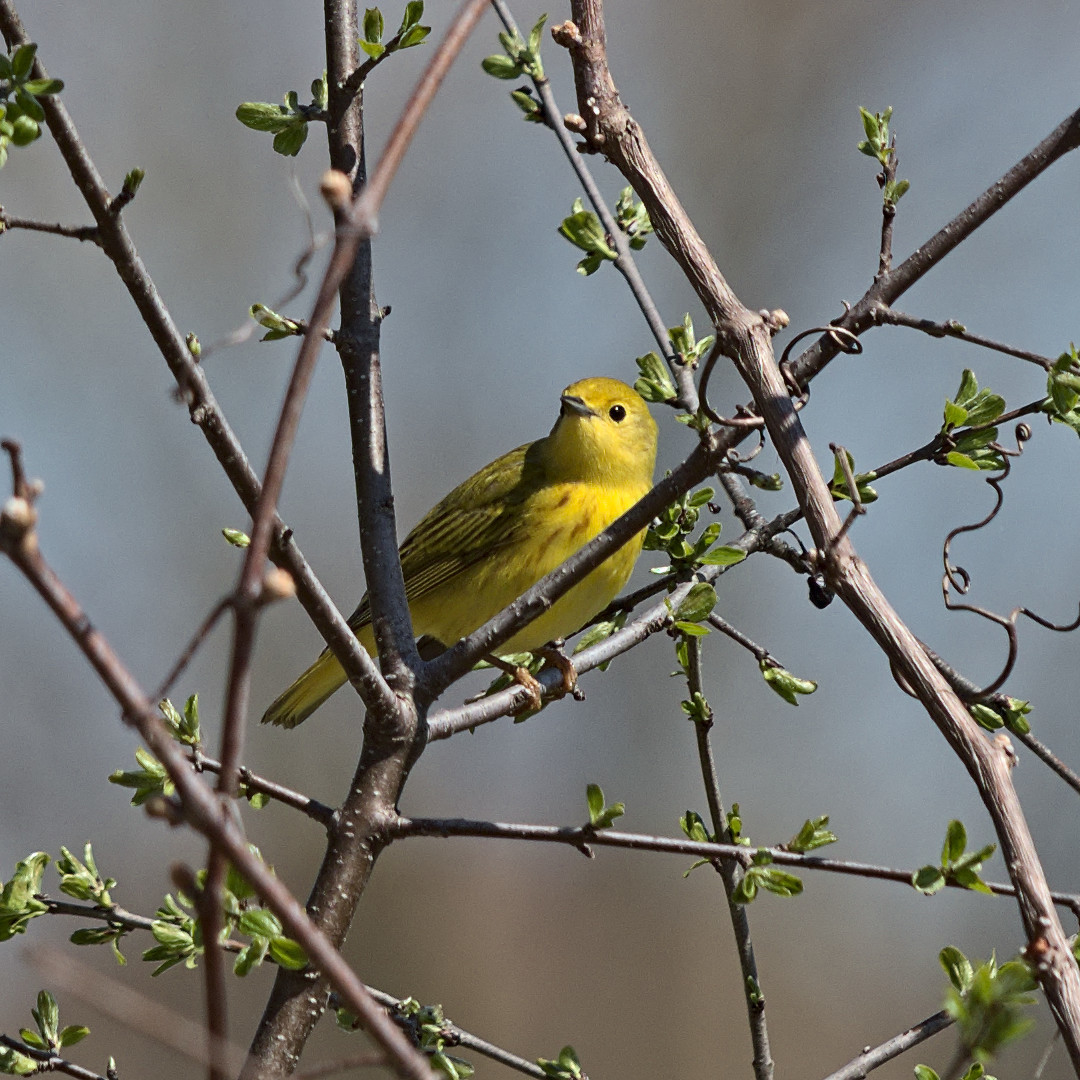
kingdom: Animalia
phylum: Chordata
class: Aves
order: Passeriformes
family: Parulidae
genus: Setophaga
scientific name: Setophaga petechia
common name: Yellow warbler
